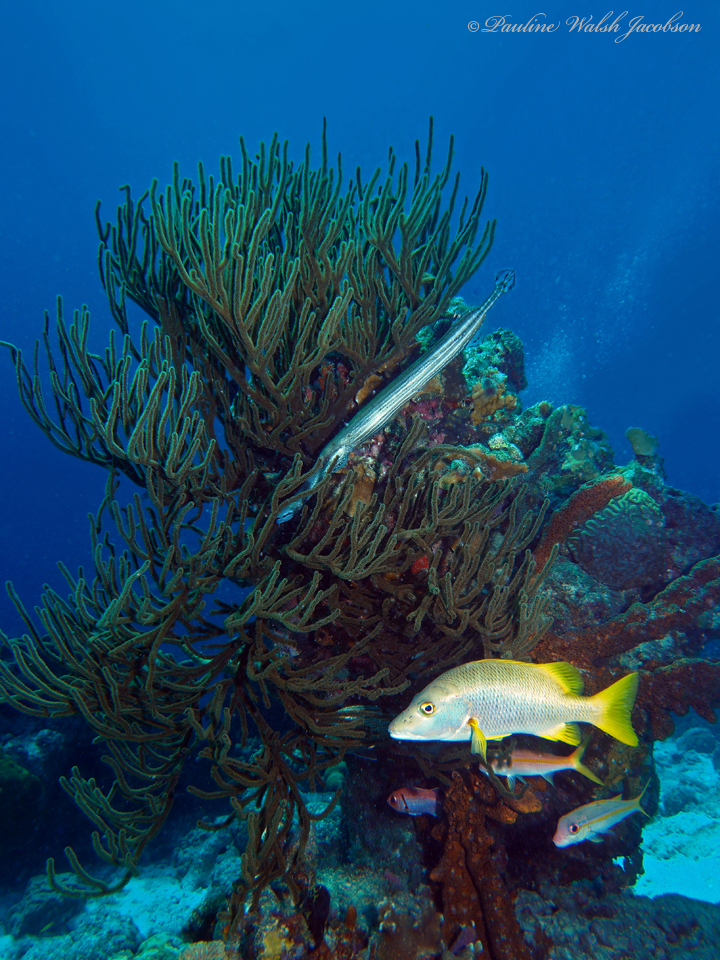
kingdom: Animalia
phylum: Chordata
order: Perciformes
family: Lutjanidae
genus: Lutjanus
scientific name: Lutjanus apodus
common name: Schoolmaster
